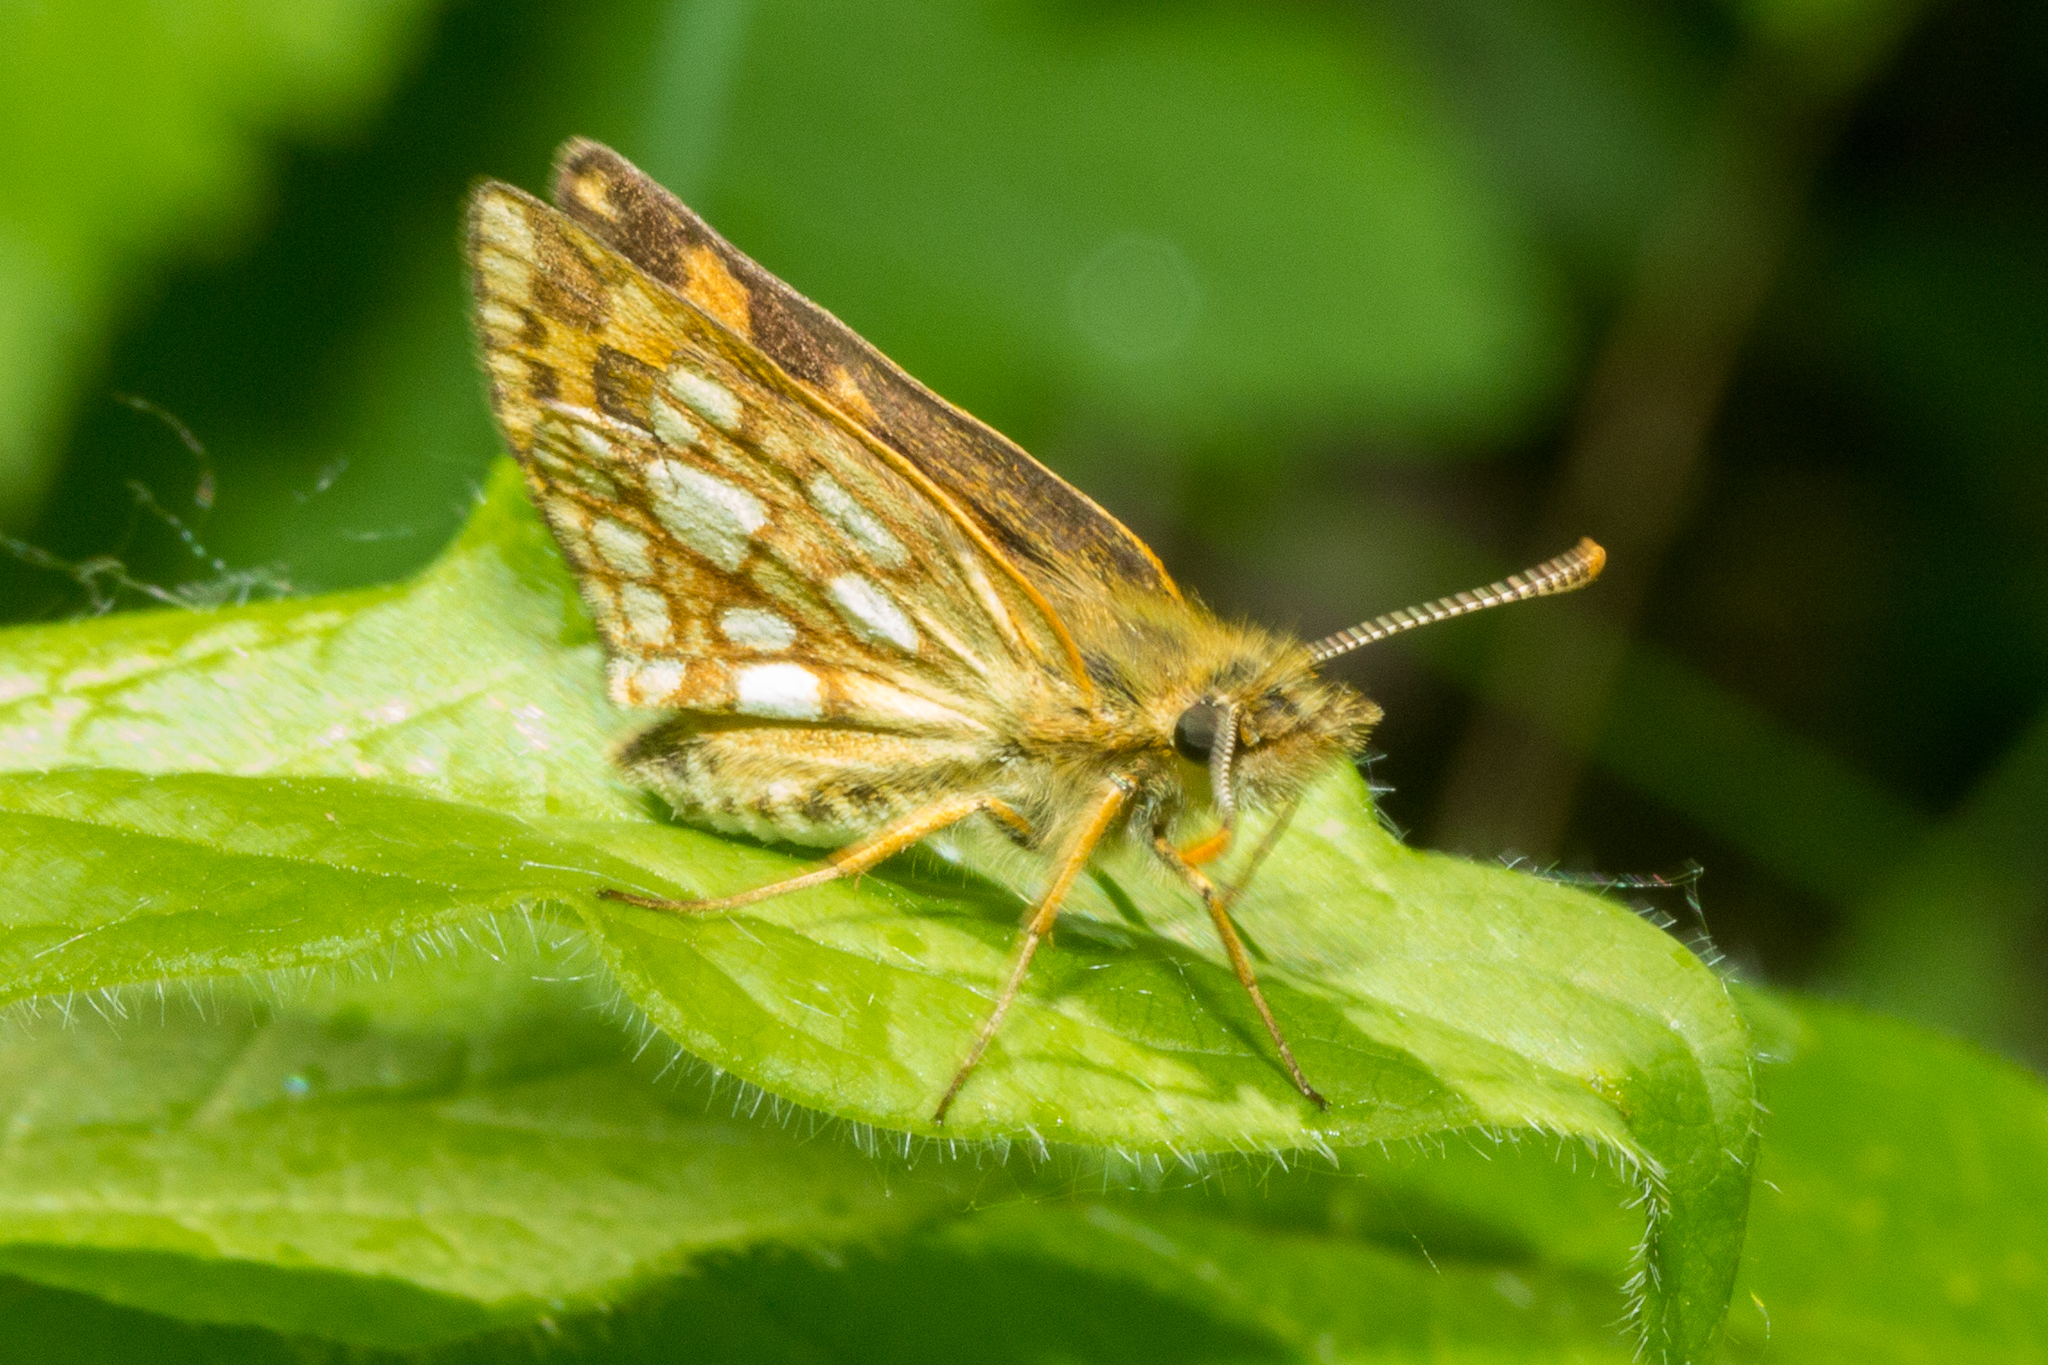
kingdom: Animalia
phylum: Arthropoda
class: Insecta
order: Lepidoptera
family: Hesperiidae
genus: Carterocephalus
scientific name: Carterocephalus mandan
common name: Arctic skipperling
